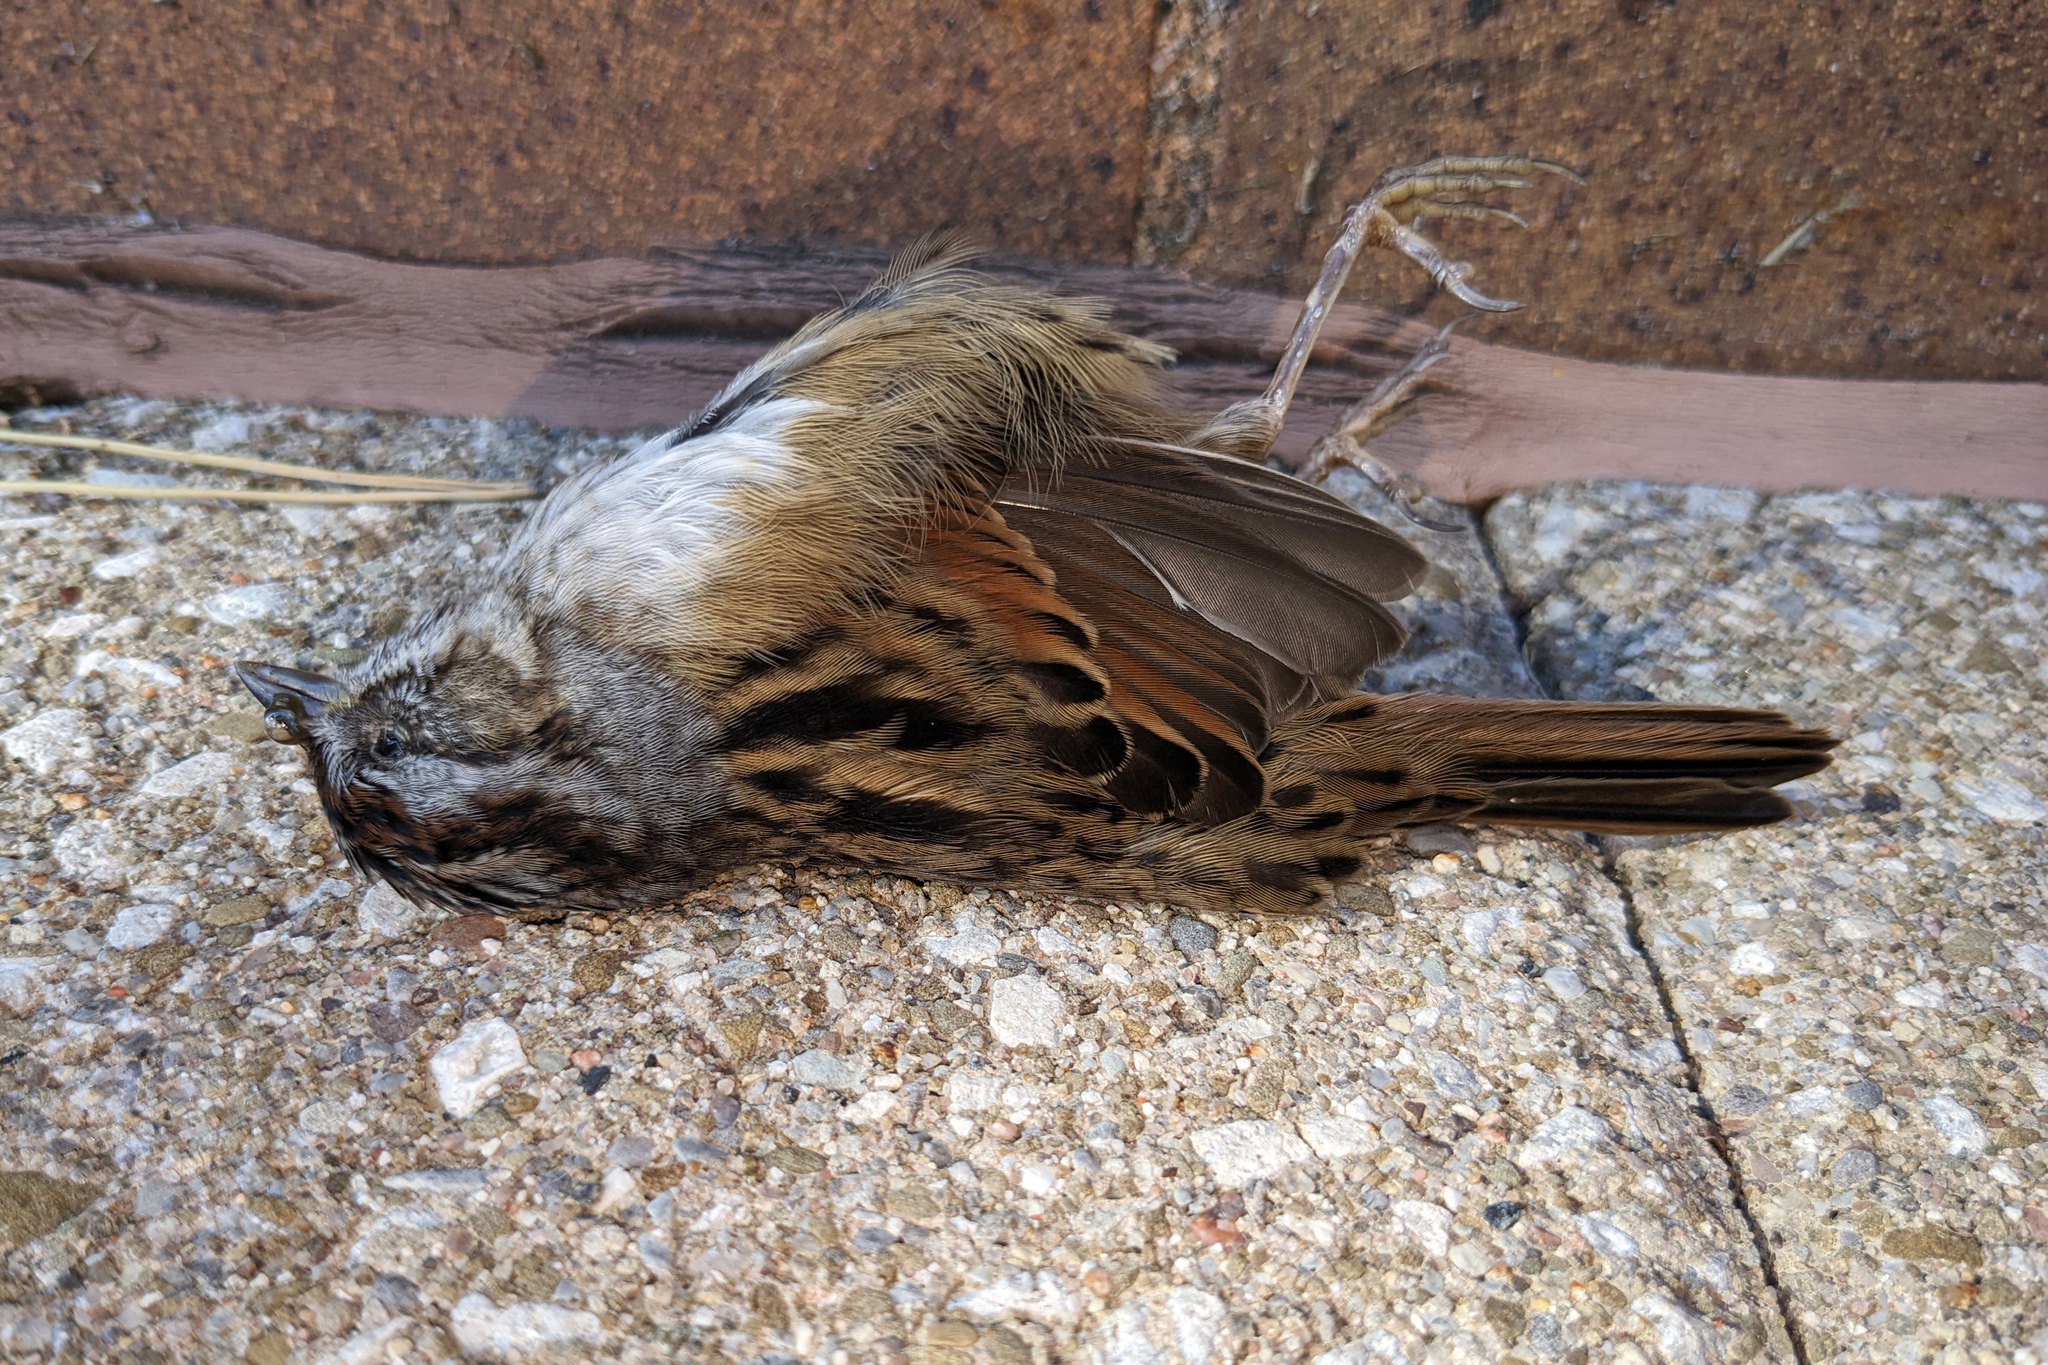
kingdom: Animalia
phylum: Chordata
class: Aves
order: Passeriformes
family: Passerellidae
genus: Melospiza
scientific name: Melospiza georgiana
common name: Swamp sparrow
